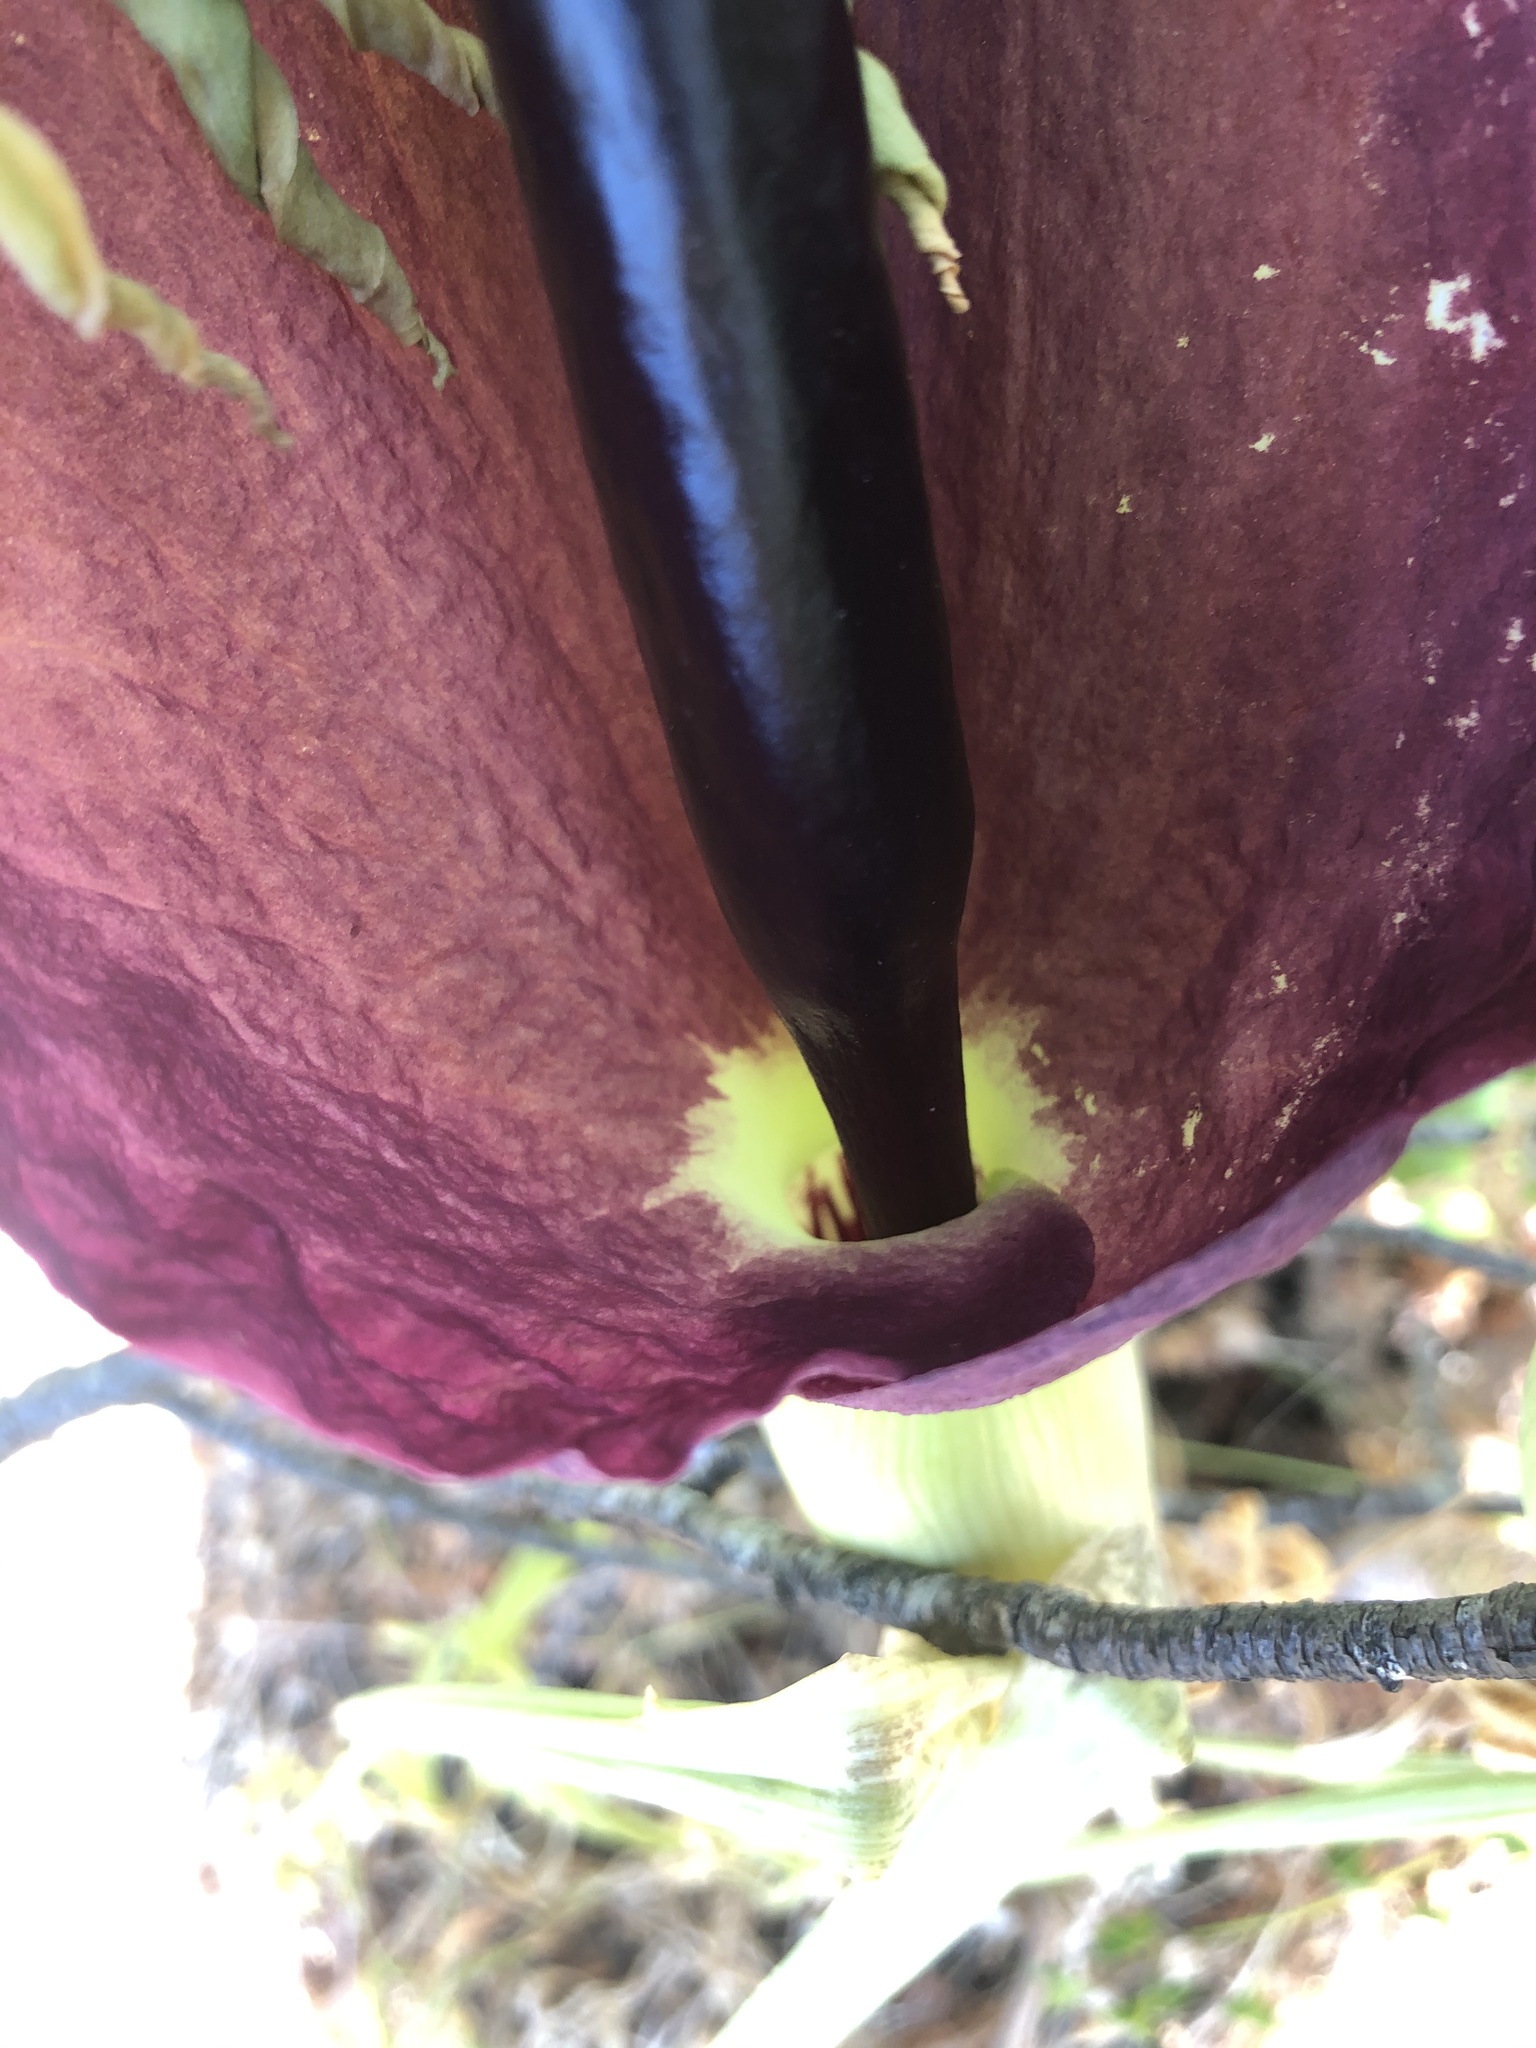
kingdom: Plantae
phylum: Tracheophyta
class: Liliopsida
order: Alismatales
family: Araceae
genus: Dracunculus
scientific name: Dracunculus vulgaris
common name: Dragon arum
